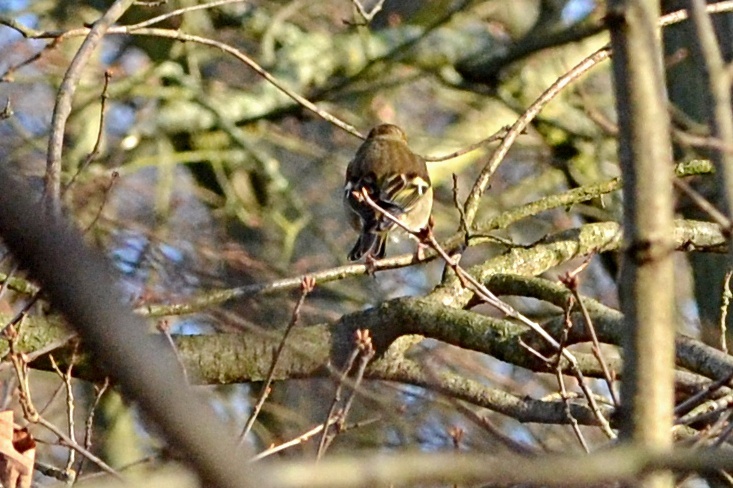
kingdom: Animalia
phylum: Chordata
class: Aves
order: Passeriformes
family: Fringillidae
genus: Fringilla
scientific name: Fringilla coelebs
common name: Common chaffinch
